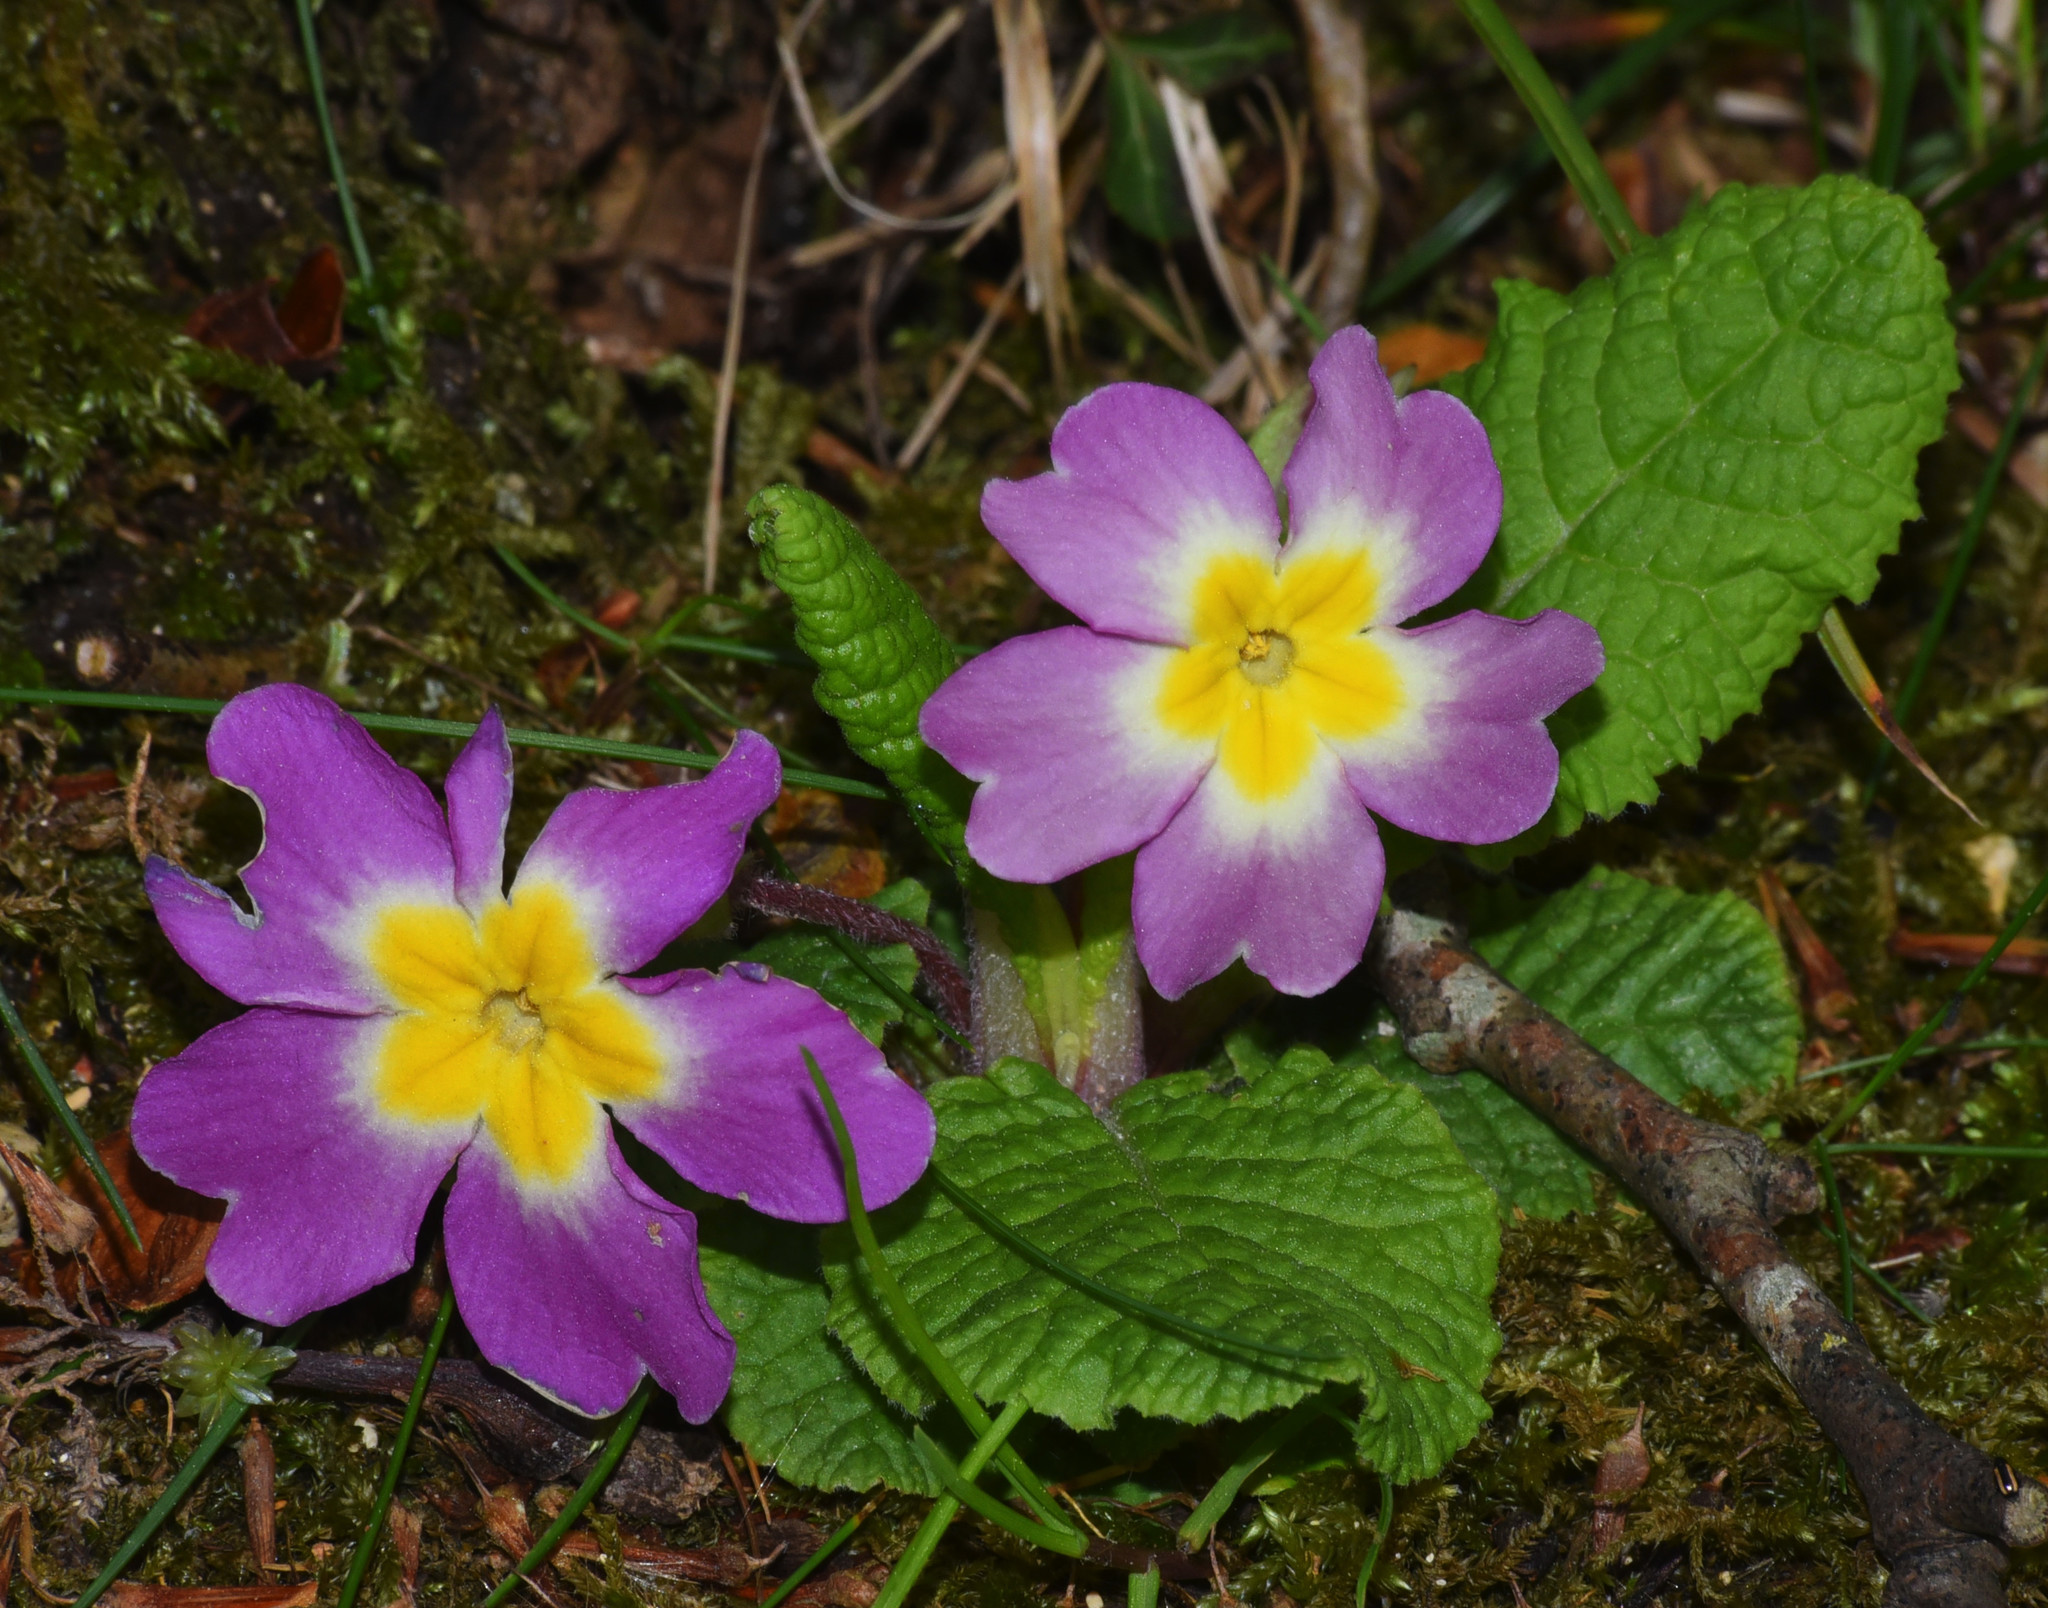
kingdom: Plantae
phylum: Tracheophyta
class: Magnoliopsida
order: Ericales
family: Primulaceae
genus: Primula
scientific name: Primula vulgaris
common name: Primrose
